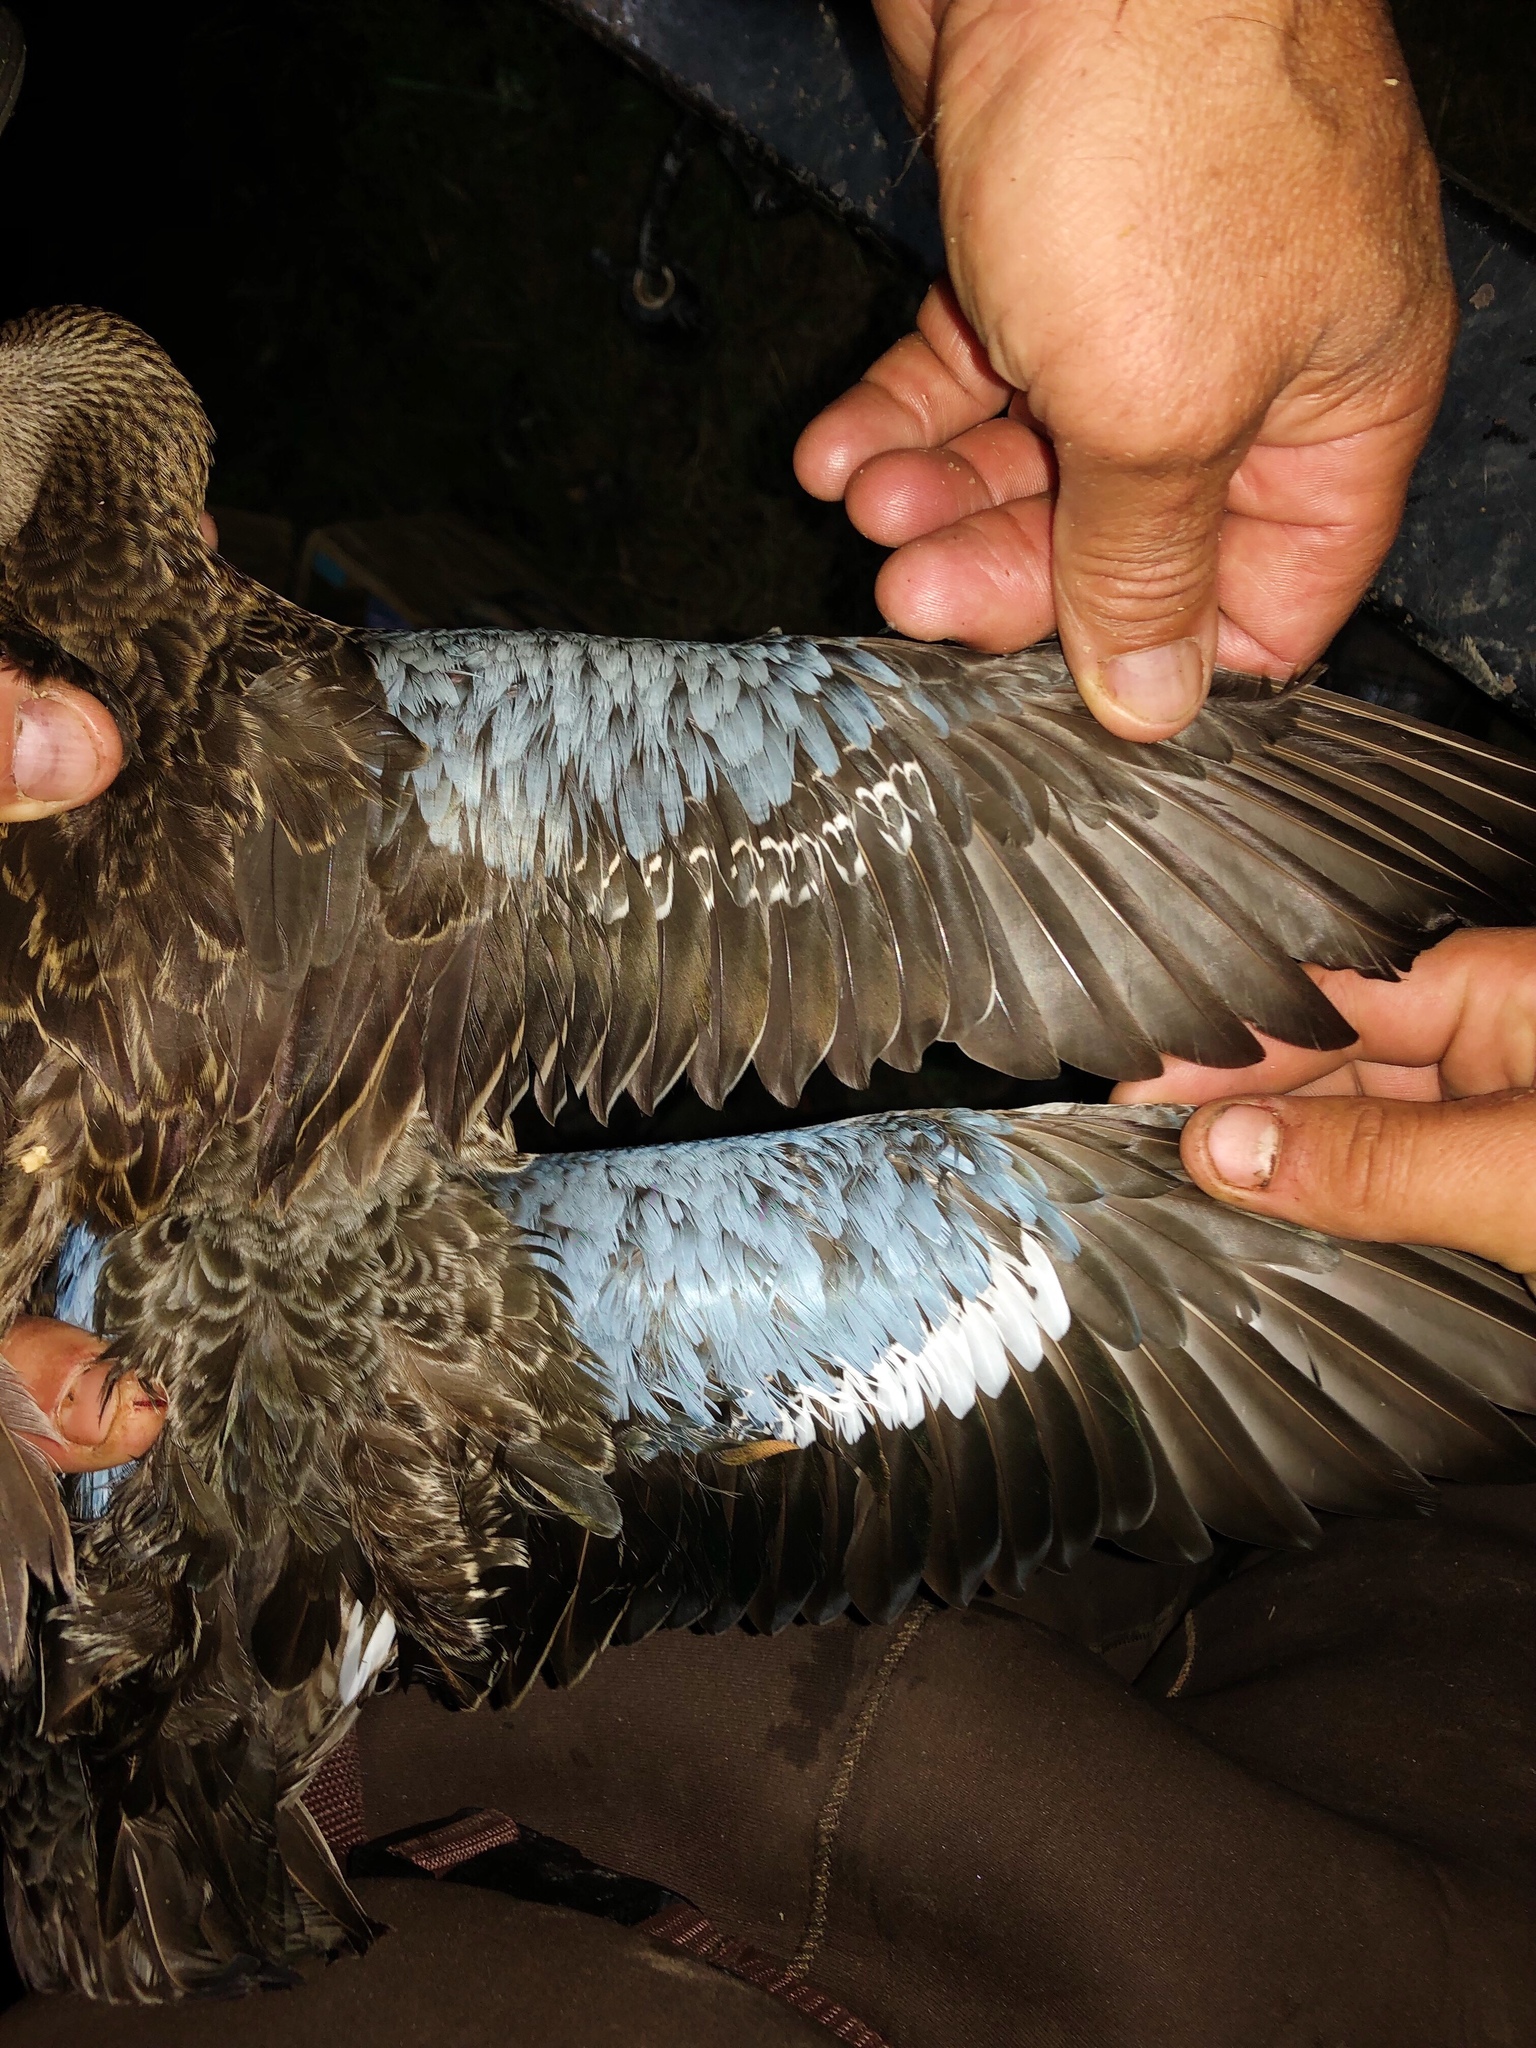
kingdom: Animalia
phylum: Chordata
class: Aves
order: Anseriformes
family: Anatidae
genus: Spatula
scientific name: Spatula discors
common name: Blue-winged teal
